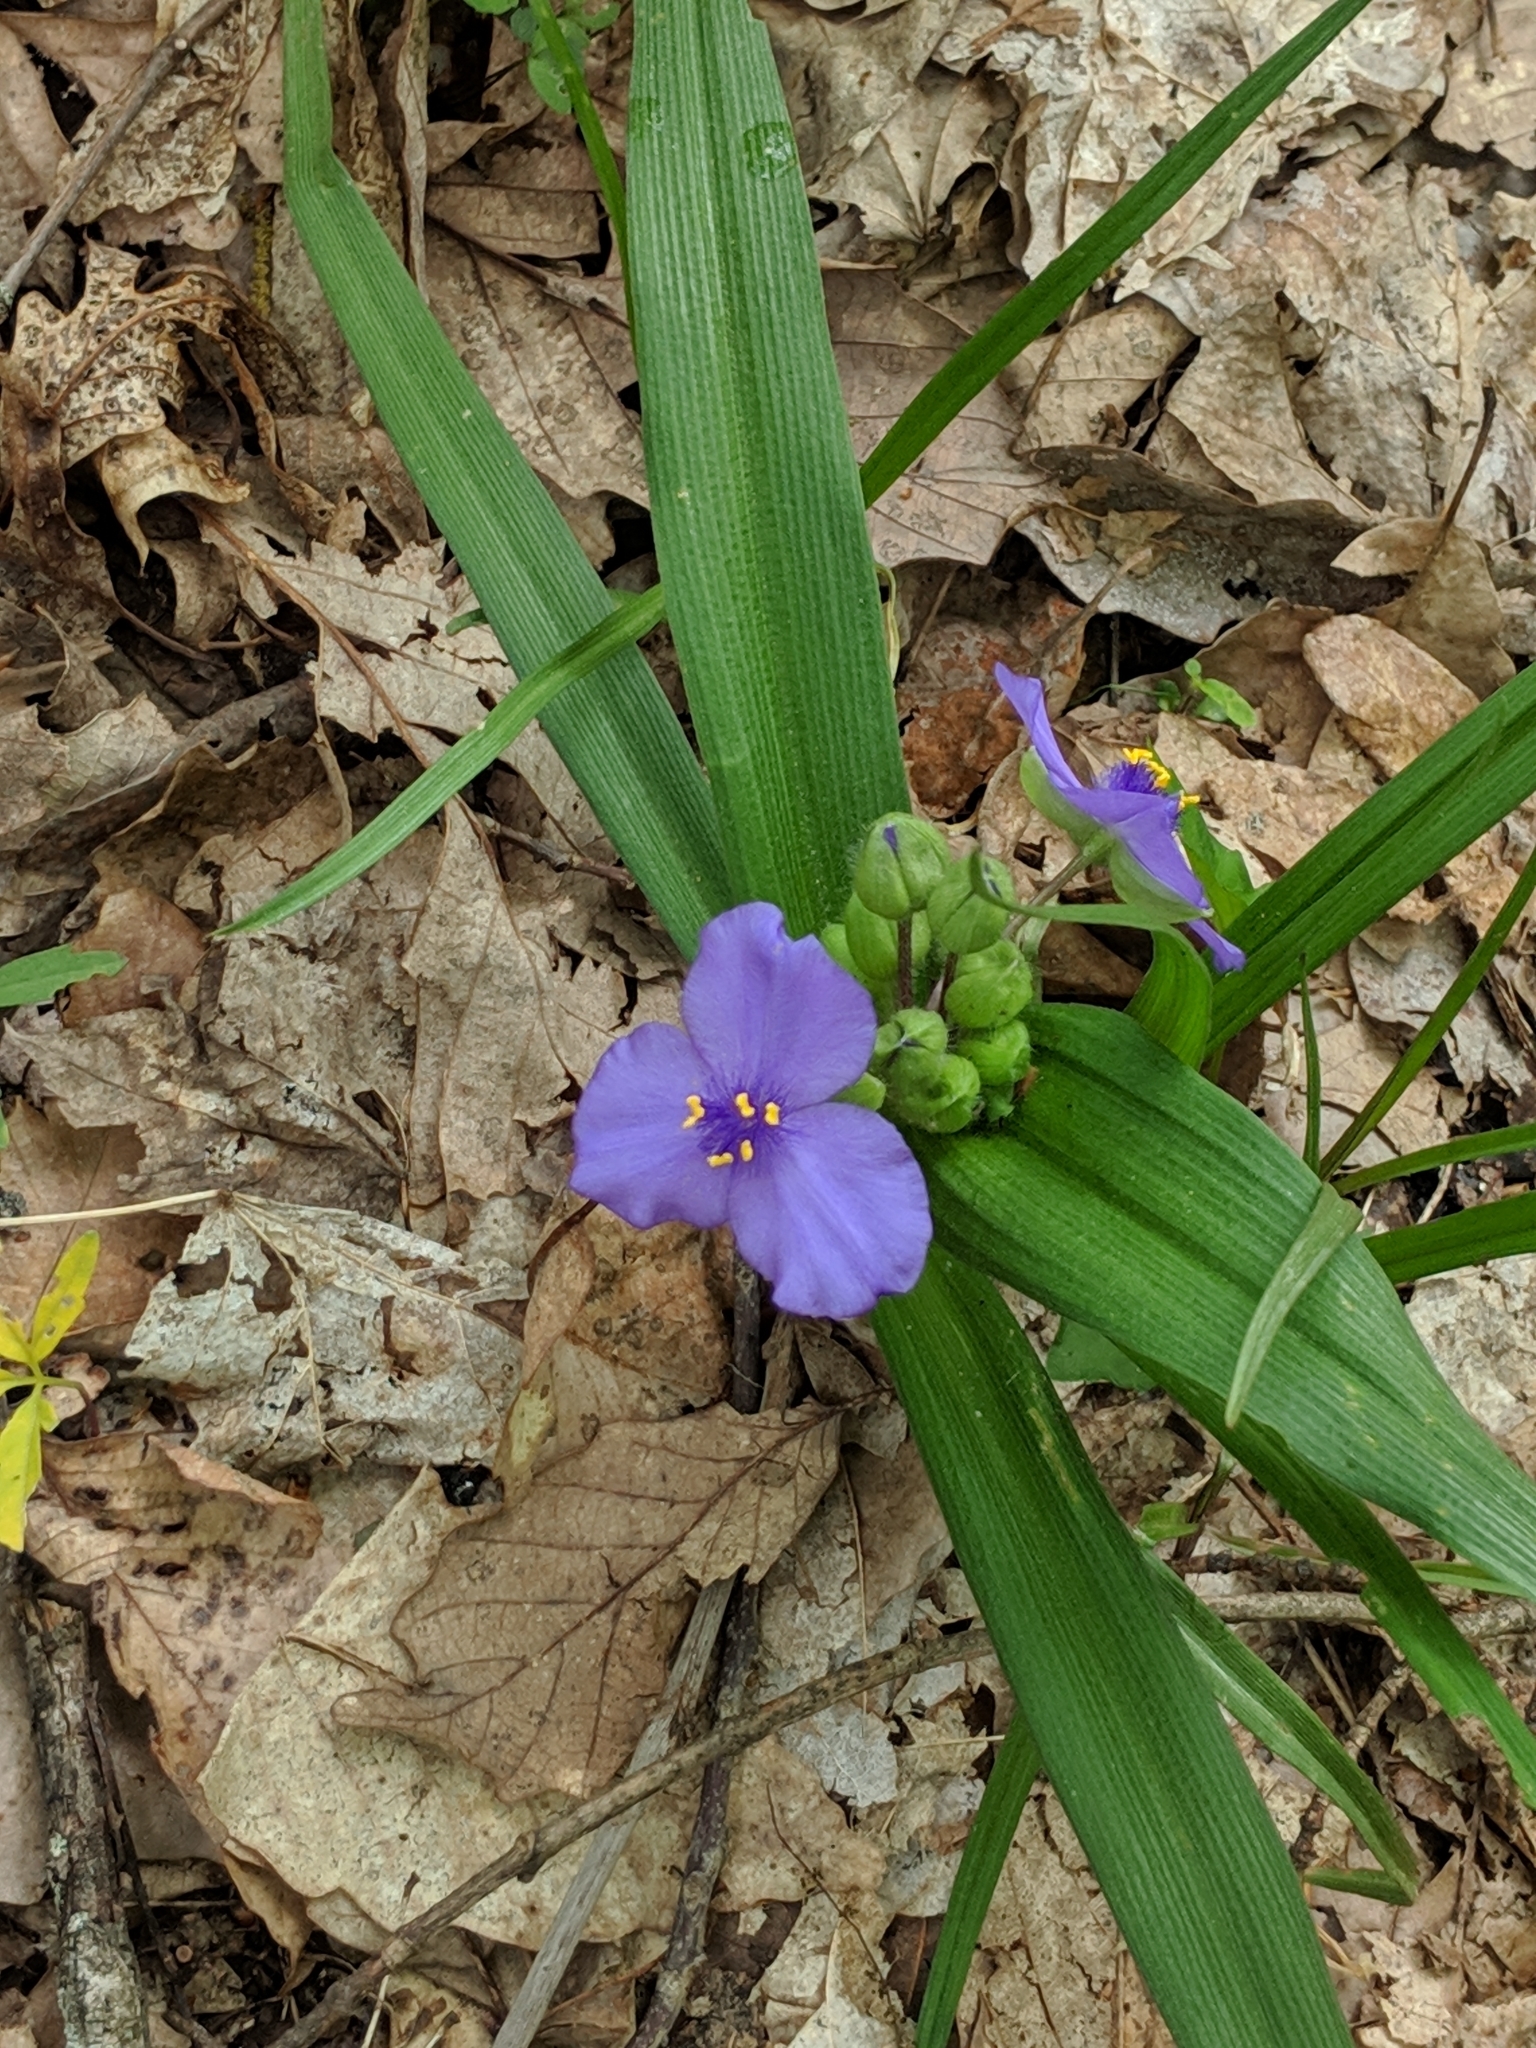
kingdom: Plantae
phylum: Tracheophyta
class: Liliopsida
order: Commelinales
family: Commelinaceae
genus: Tradescantia
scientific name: Tradescantia virginiana
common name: Spiderwort
